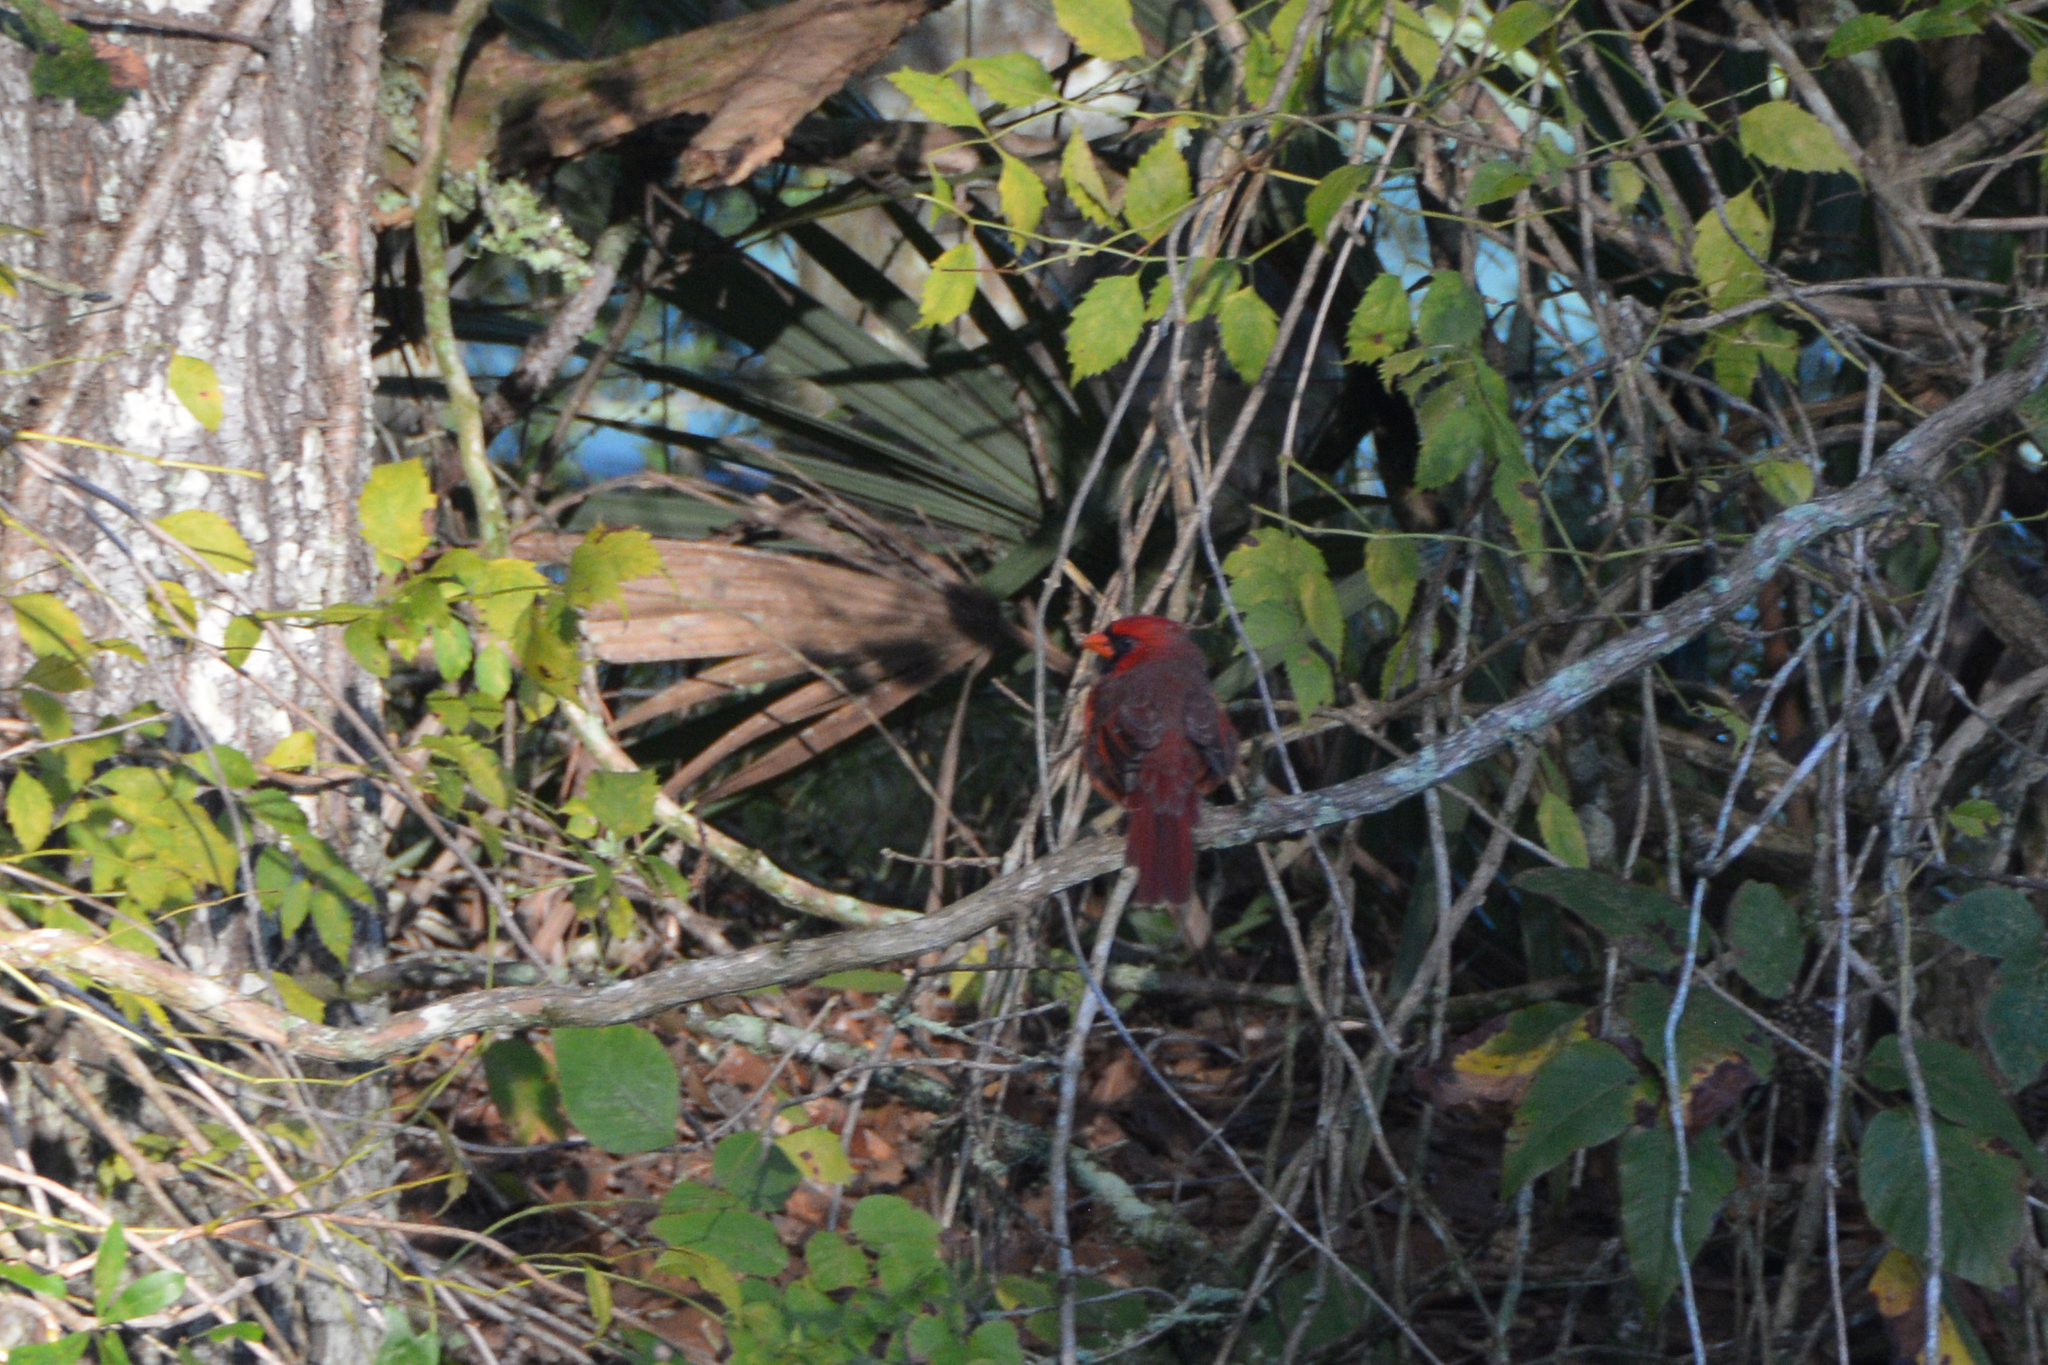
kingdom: Animalia
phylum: Chordata
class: Aves
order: Passeriformes
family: Cardinalidae
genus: Cardinalis
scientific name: Cardinalis cardinalis
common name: Northern cardinal
